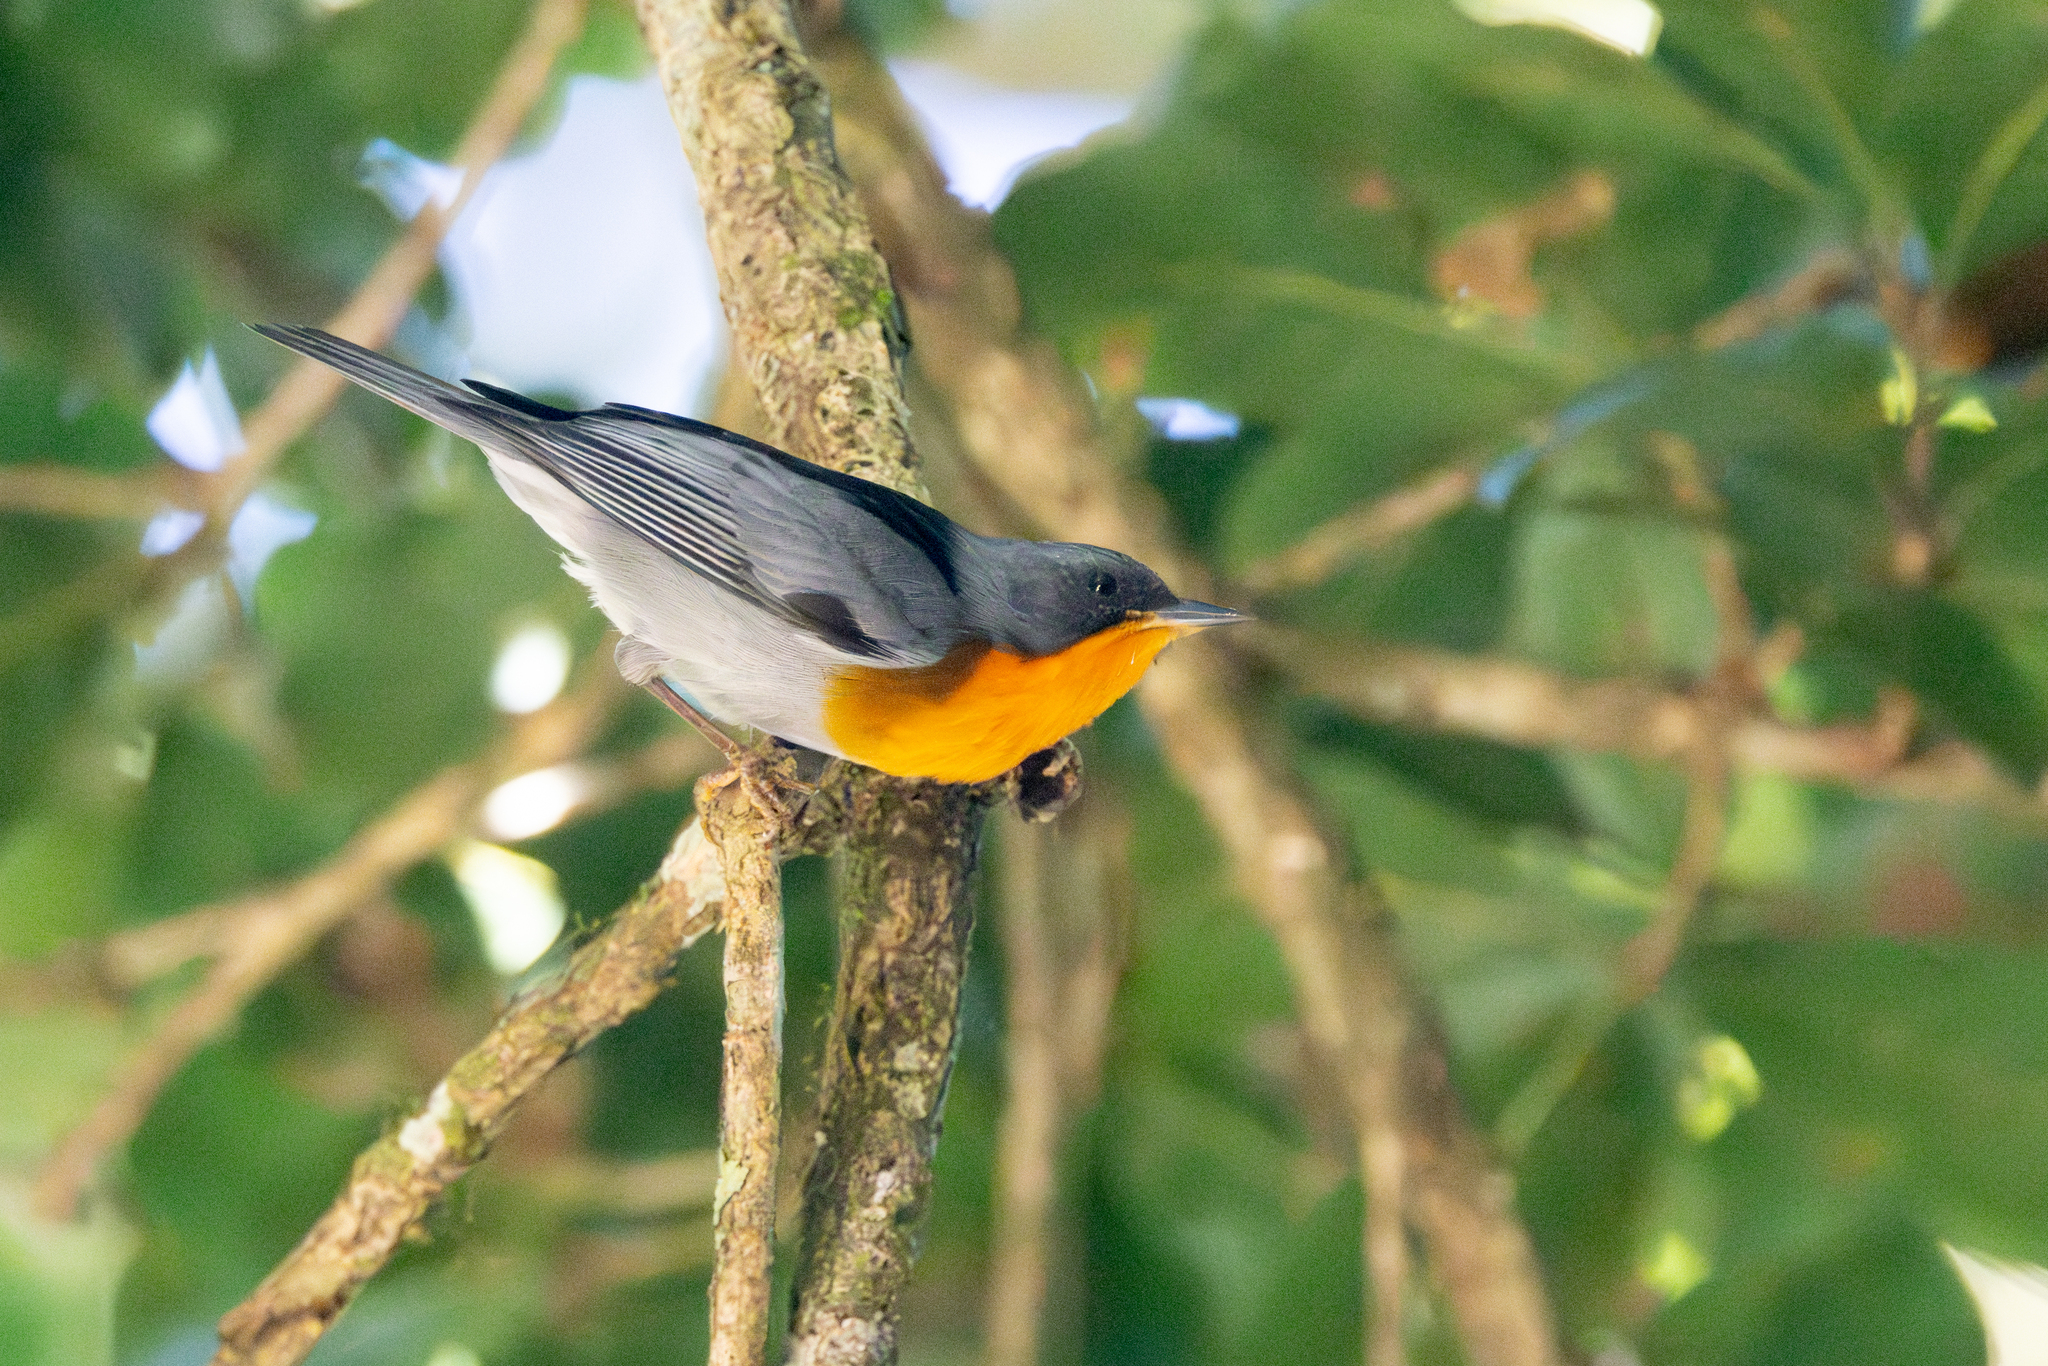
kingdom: Animalia
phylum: Chordata
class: Aves
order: Passeriformes
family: Parulidae
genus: Oreothlypis
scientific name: Oreothlypis gutturalis
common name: Flame-throated warbler
